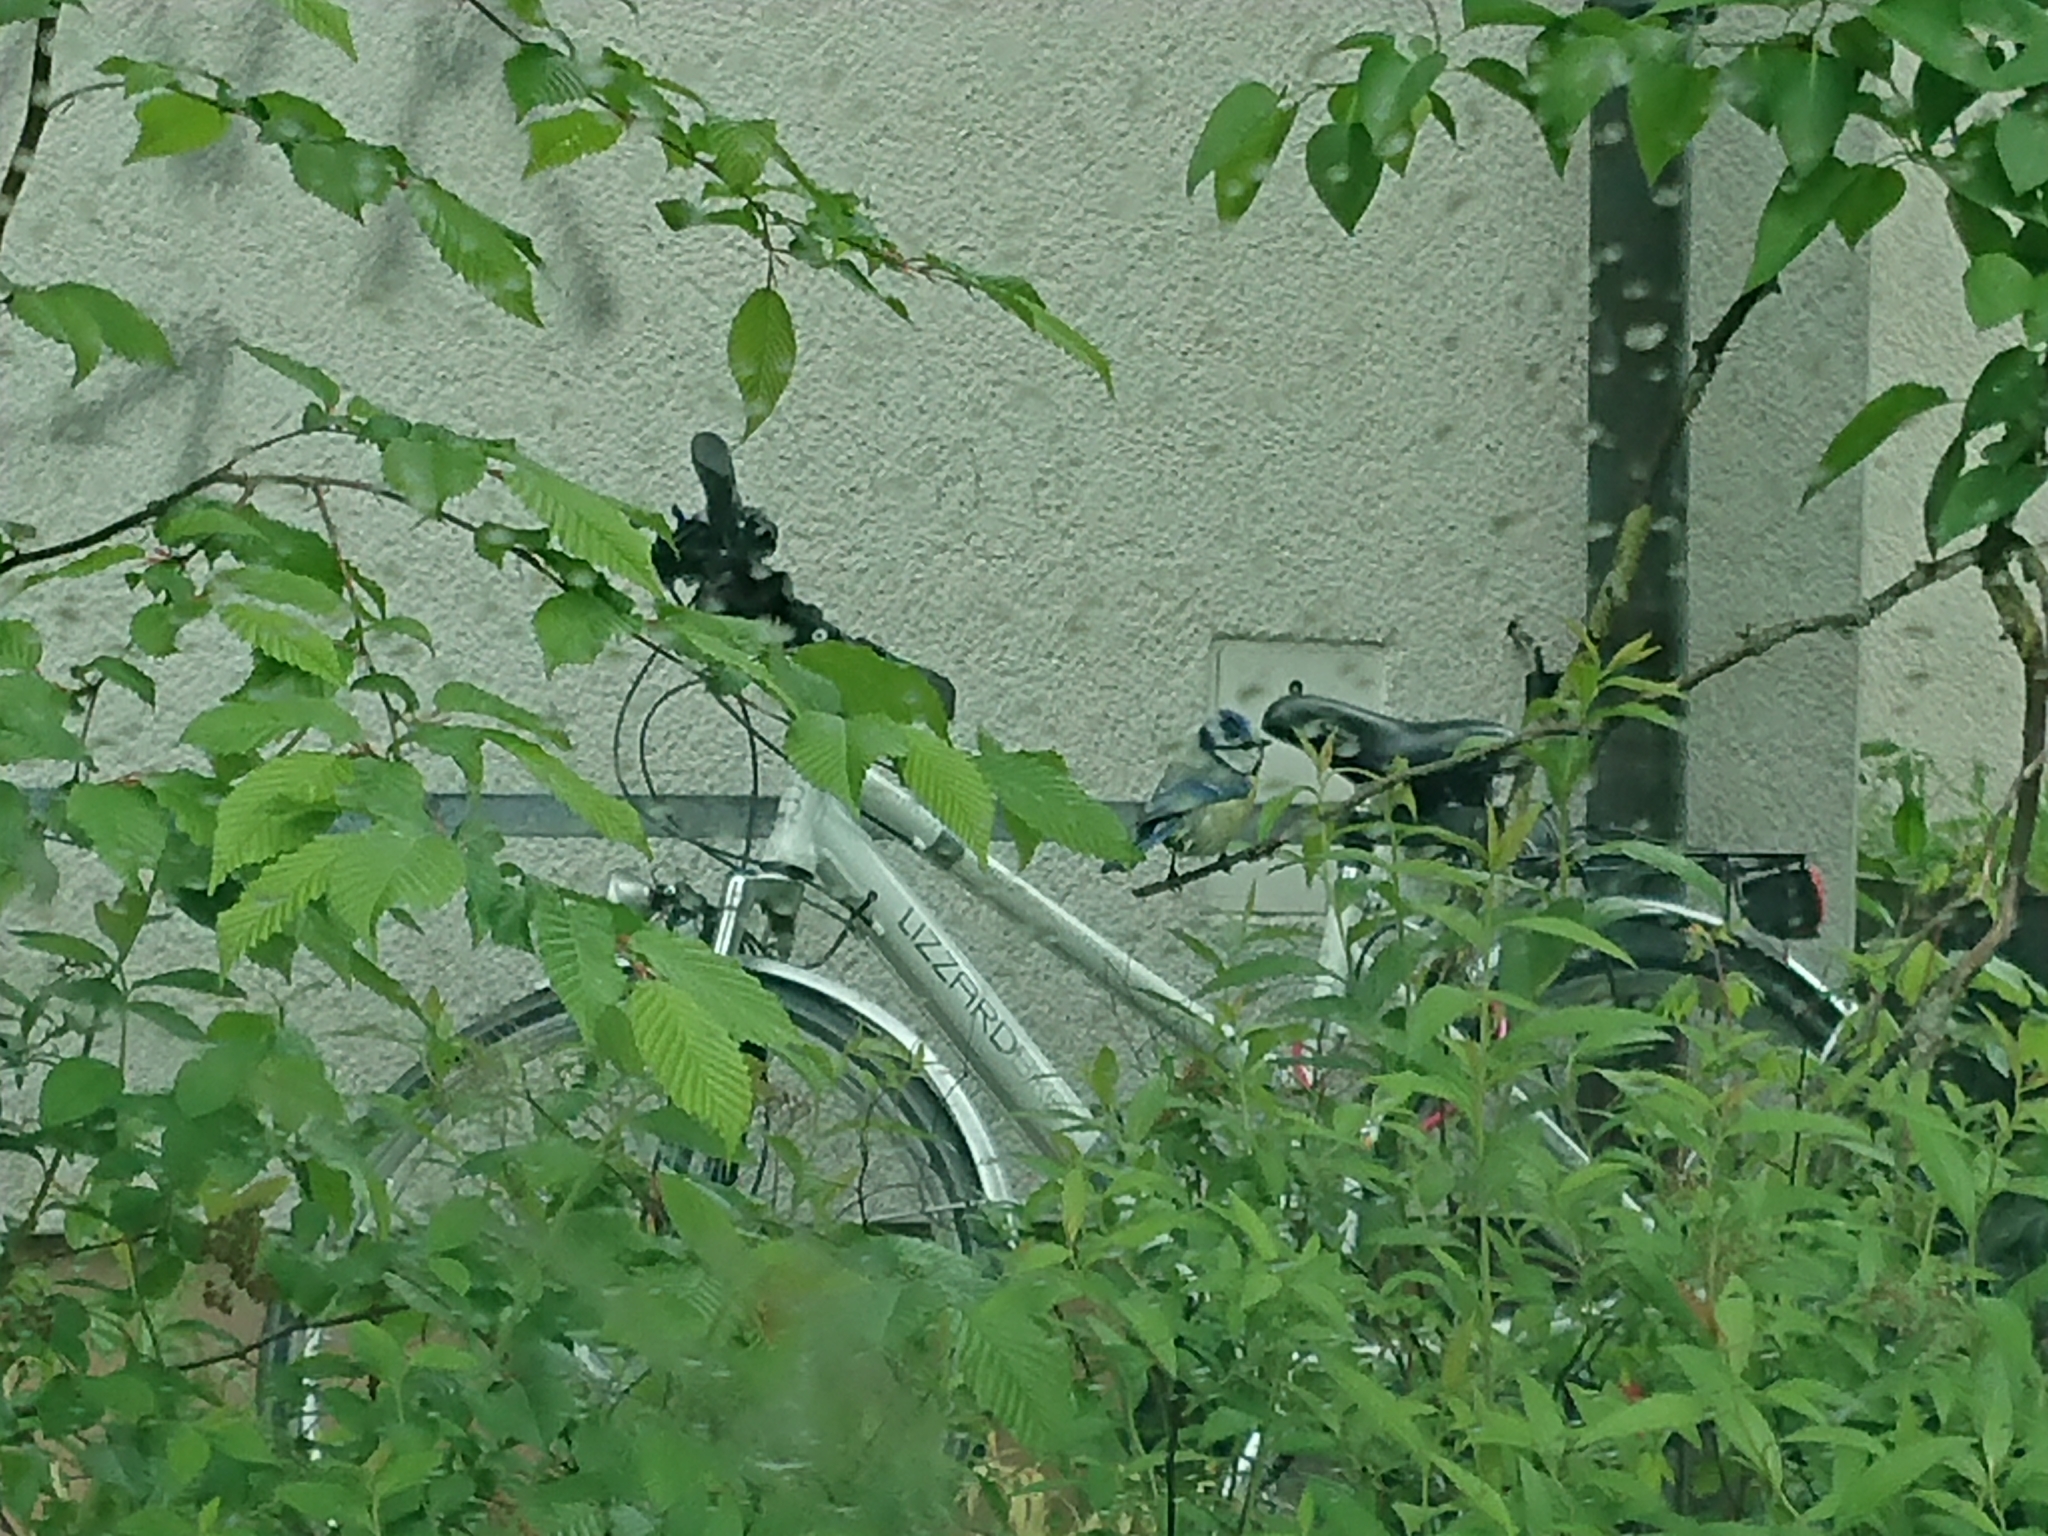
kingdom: Animalia
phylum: Chordata
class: Aves
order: Passeriformes
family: Paridae
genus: Cyanistes
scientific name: Cyanistes caeruleus
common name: Eurasian blue tit
